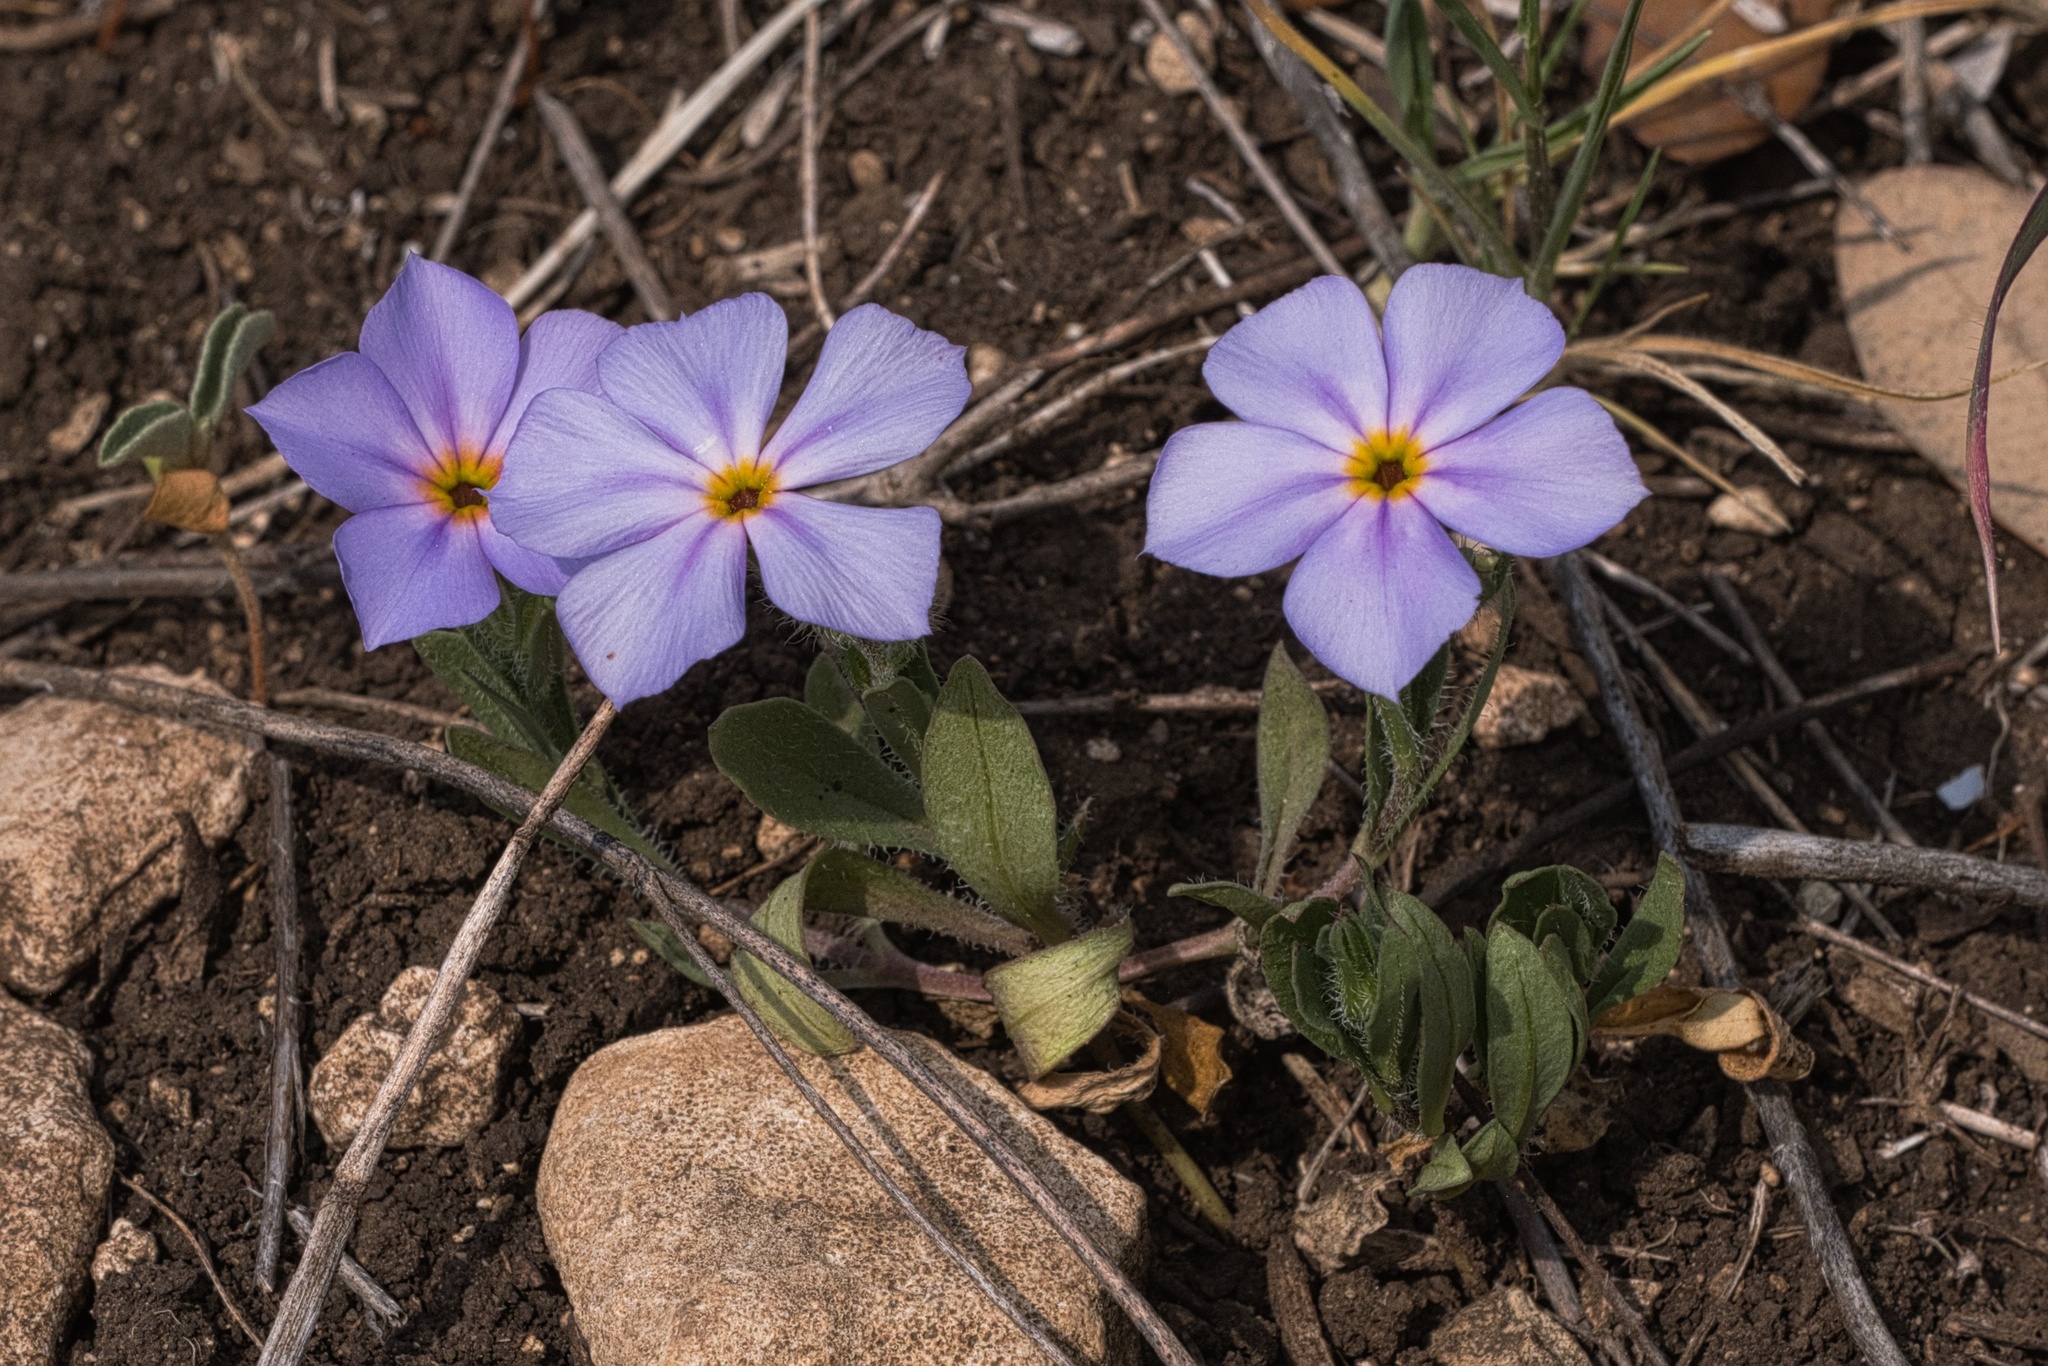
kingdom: Plantae
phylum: Tracheophyta
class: Magnoliopsida
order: Ericales
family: Polemoniaceae
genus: Phlox
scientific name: Phlox roemeriana
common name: Roemer's phlox
